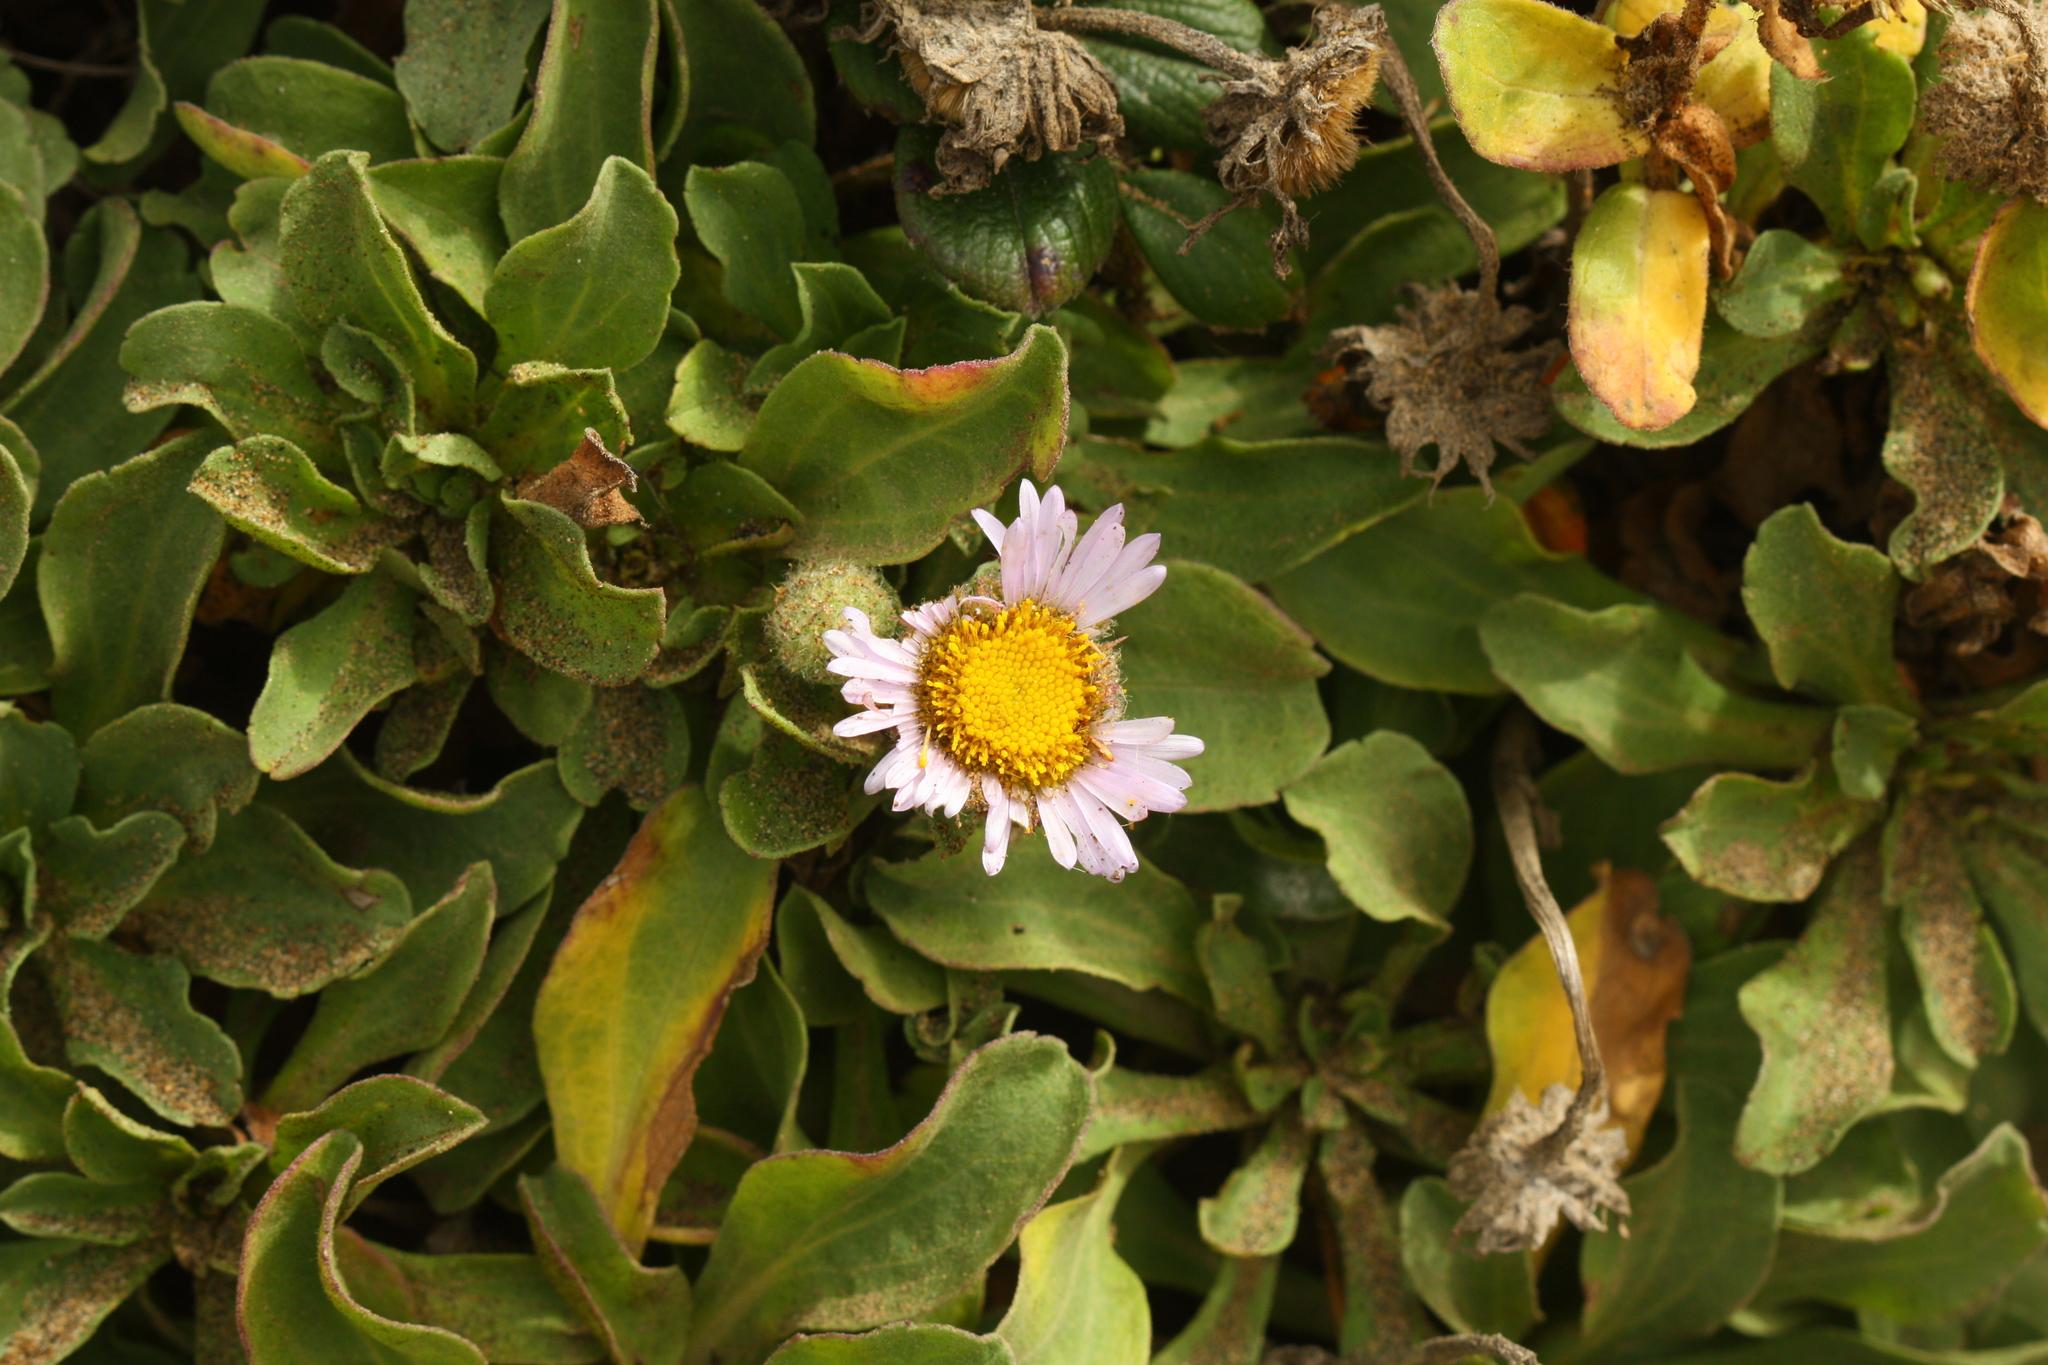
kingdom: Plantae
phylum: Tracheophyta
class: Magnoliopsida
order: Asterales
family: Asteraceae
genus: Erigeron
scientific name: Erigeron glaucus
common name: Seaside daisy
